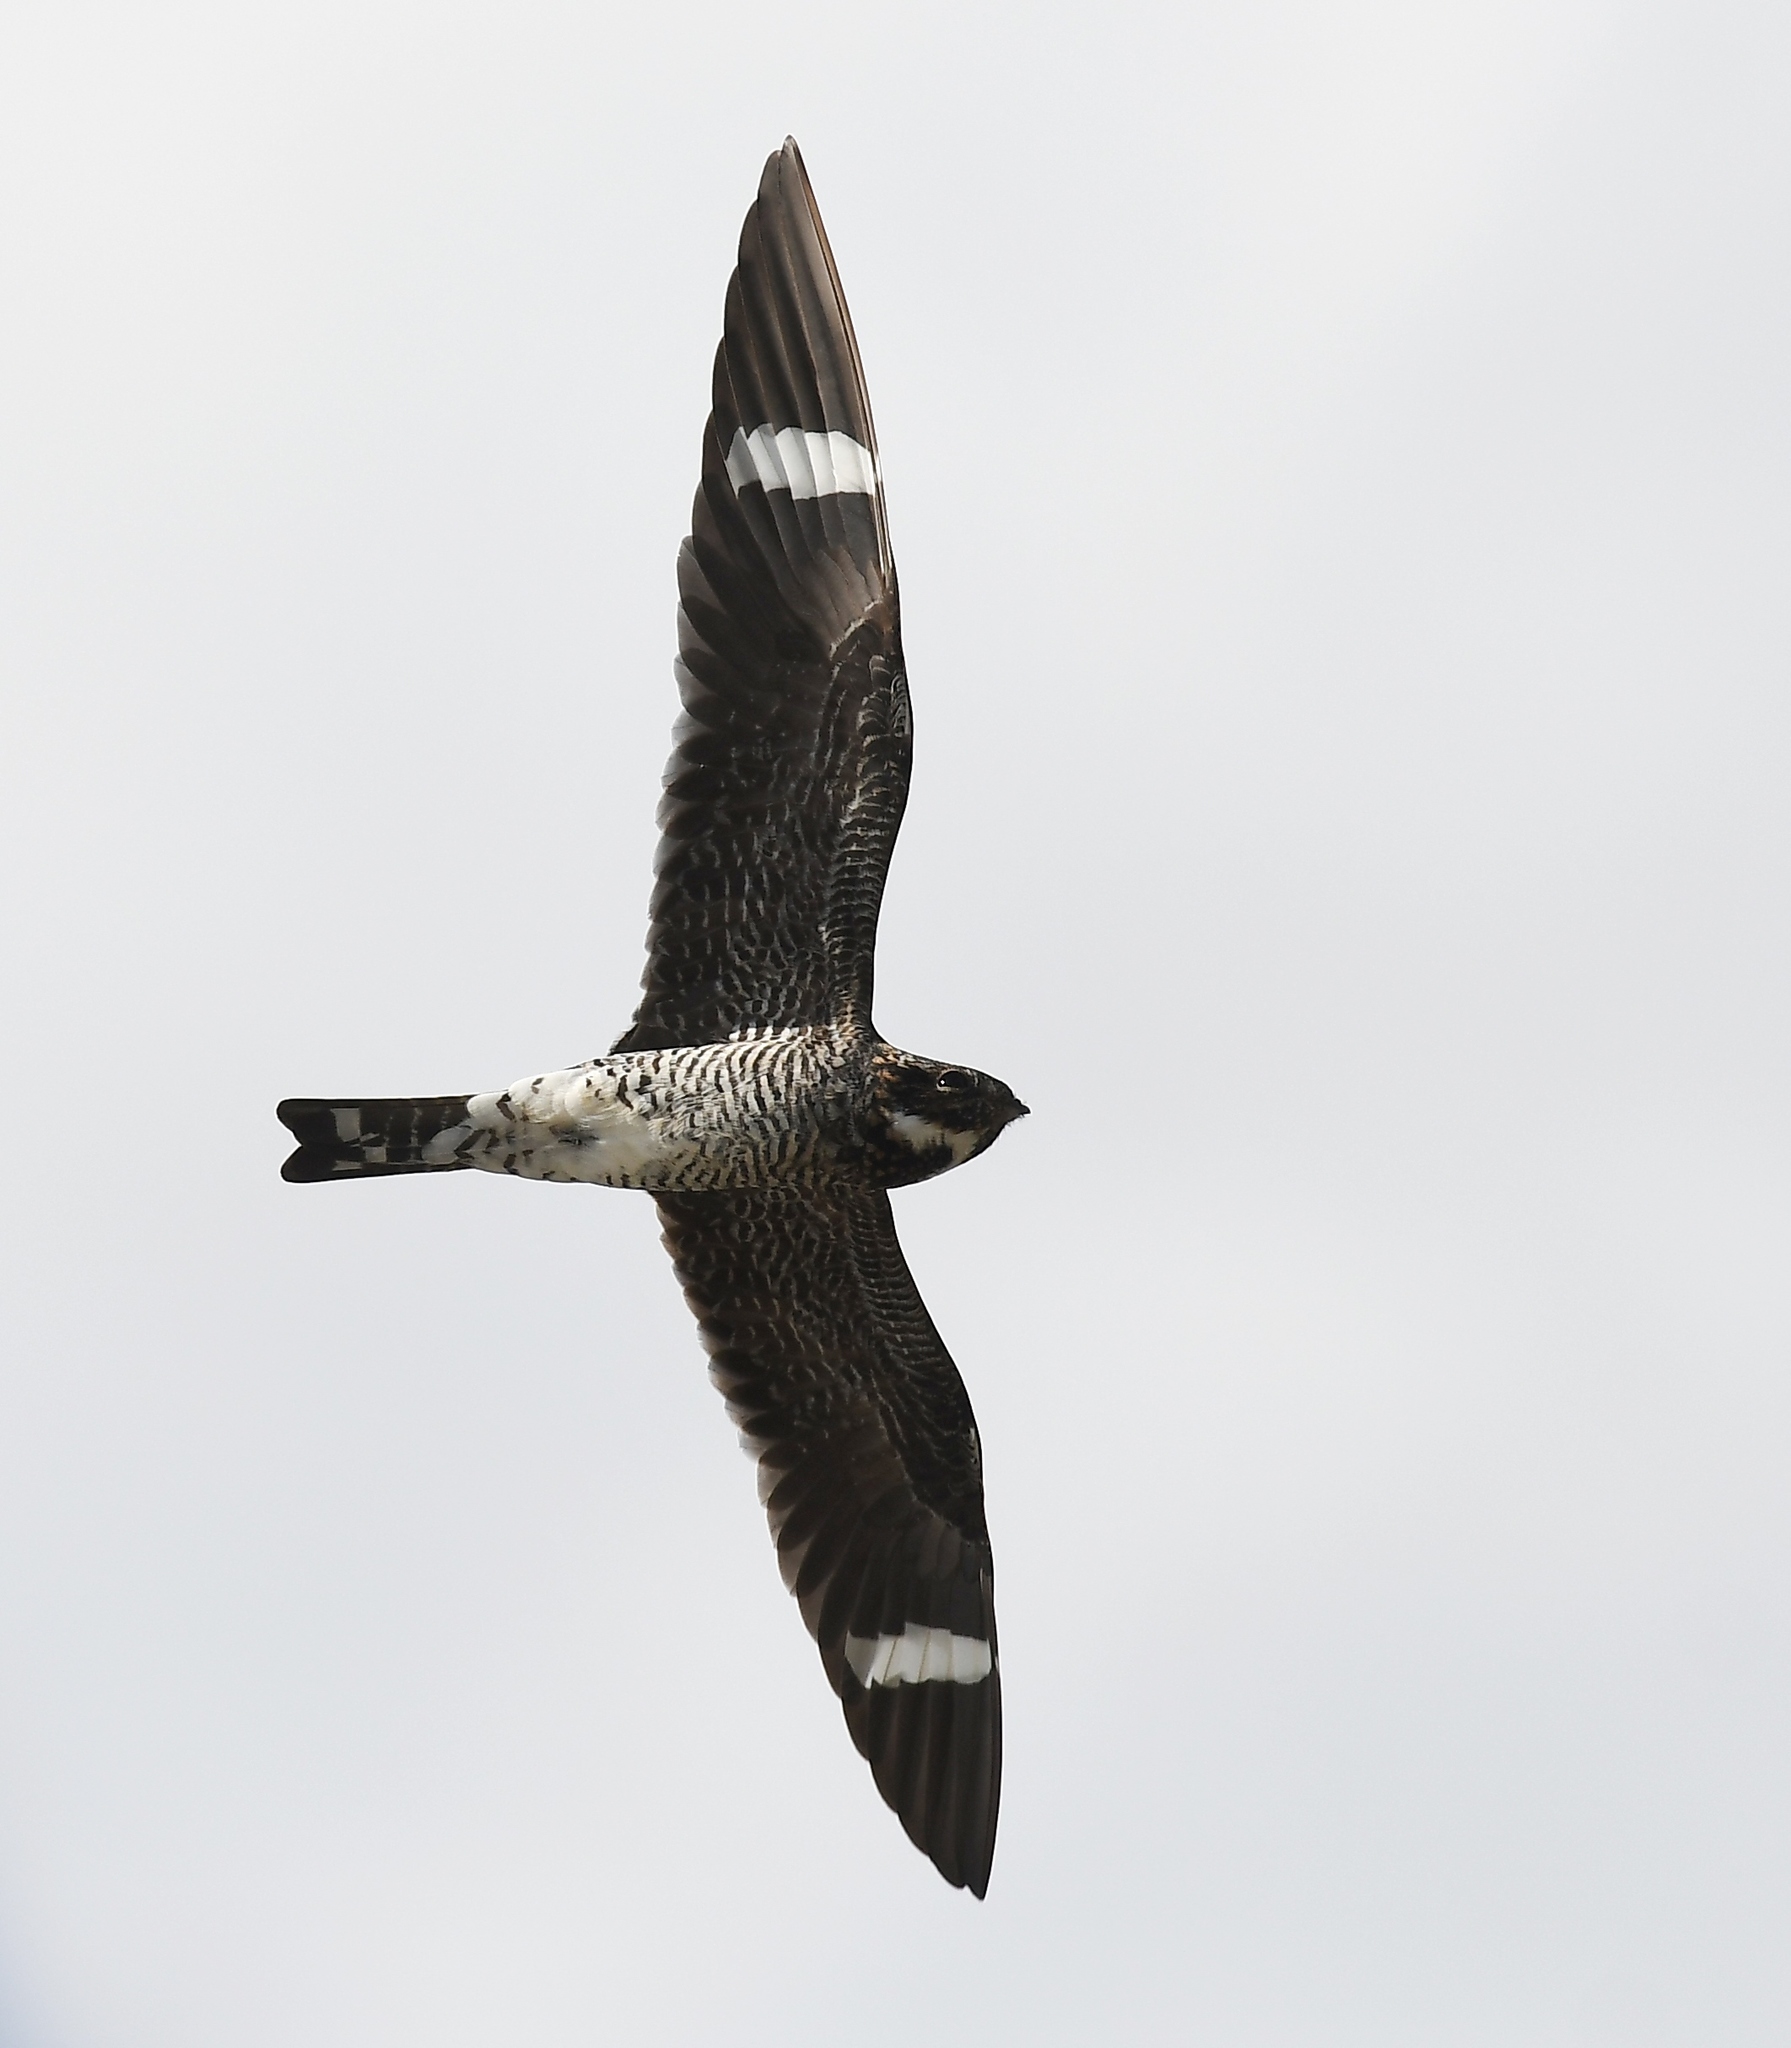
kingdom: Animalia
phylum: Chordata
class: Aves
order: Caprimulgiformes
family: Caprimulgidae
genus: Chordeiles
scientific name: Chordeiles minor
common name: Common nighthawk
